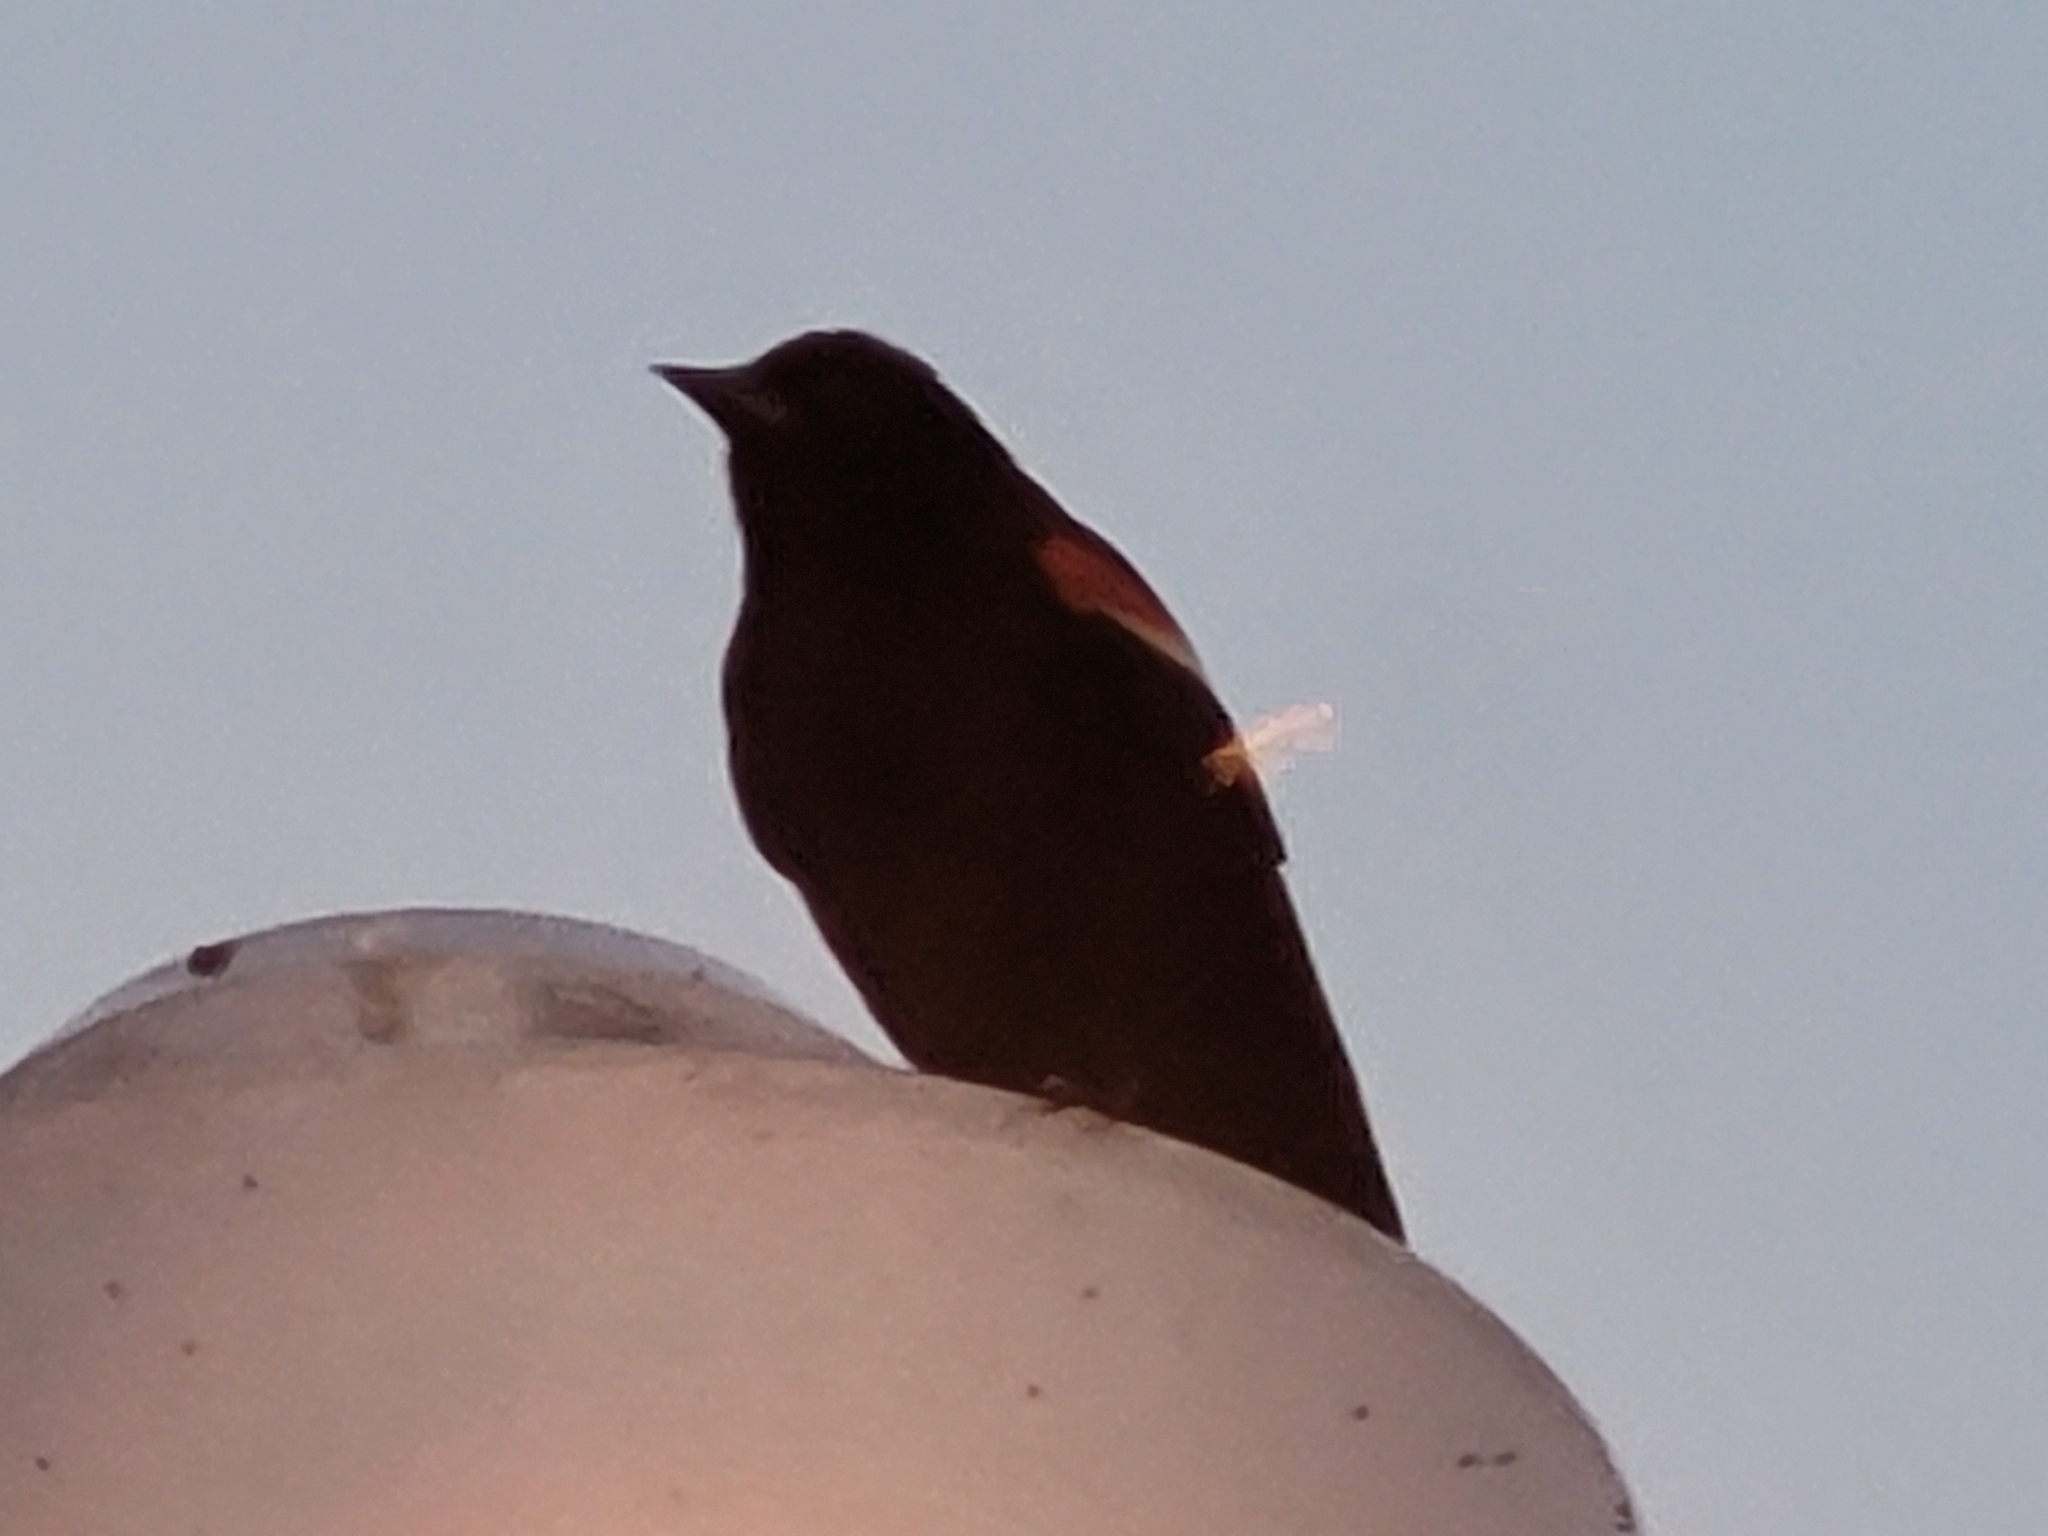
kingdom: Animalia
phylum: Chordata
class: Aves
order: Passeriformes
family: Icteridae
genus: Agelaius
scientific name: Agelaius phoeniceus
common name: Red-winged blackbird
